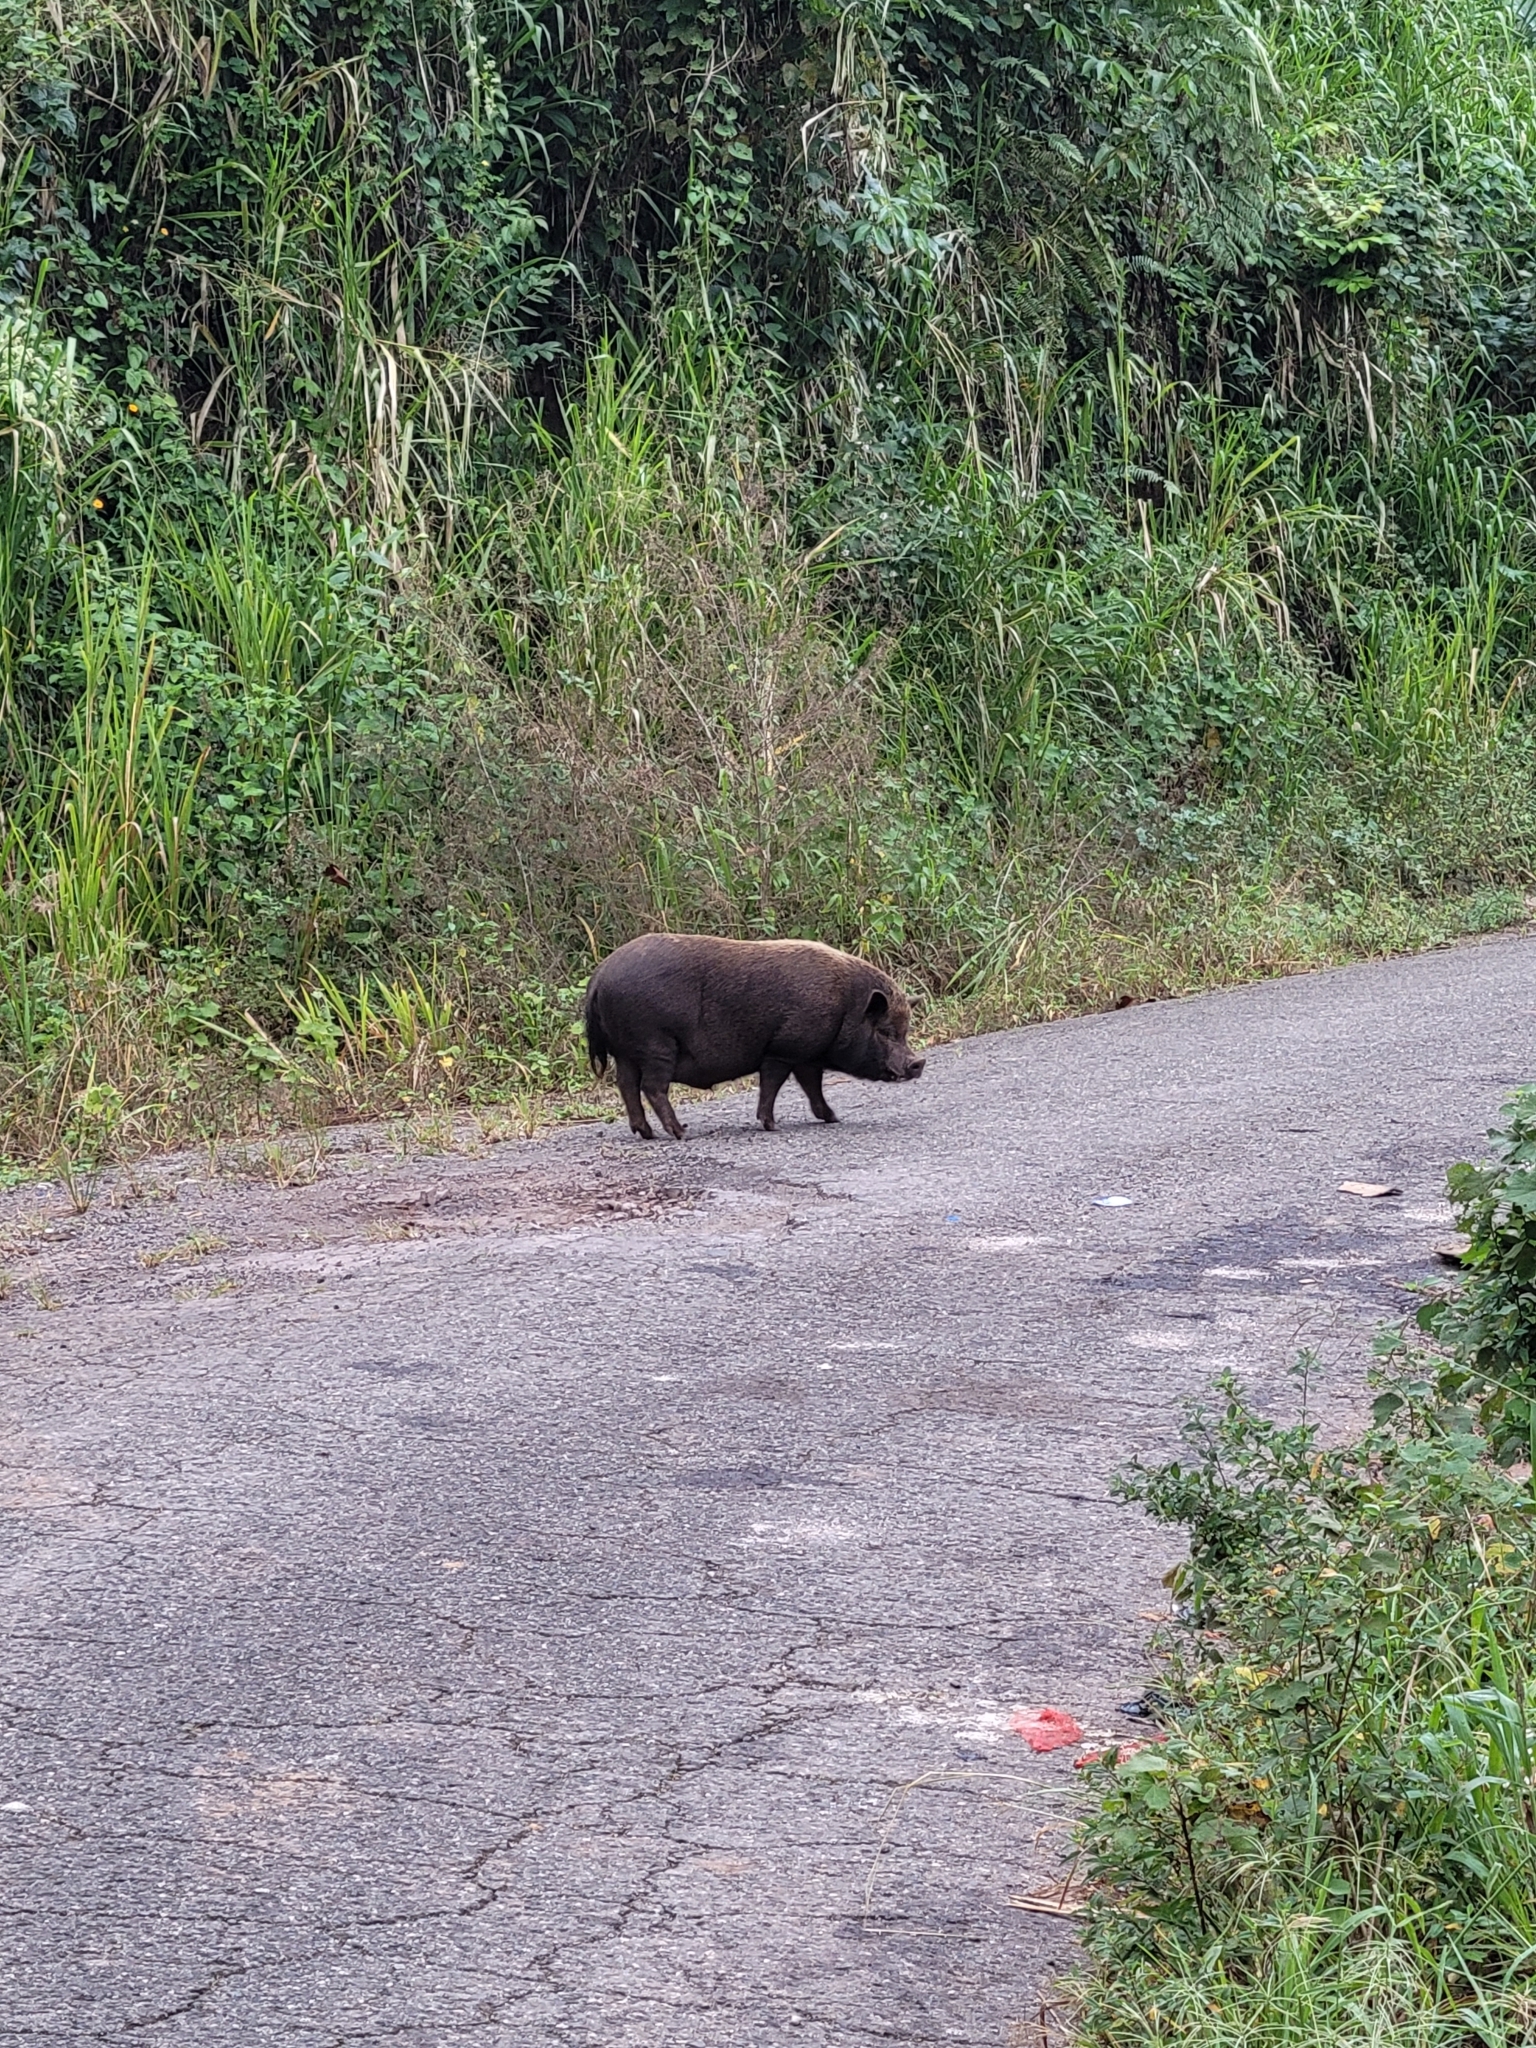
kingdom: Animalia
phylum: Chordata
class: Mammalia
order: Artiodactyla
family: Suidae
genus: Sus
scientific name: Sus scrofa
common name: Wild boar
